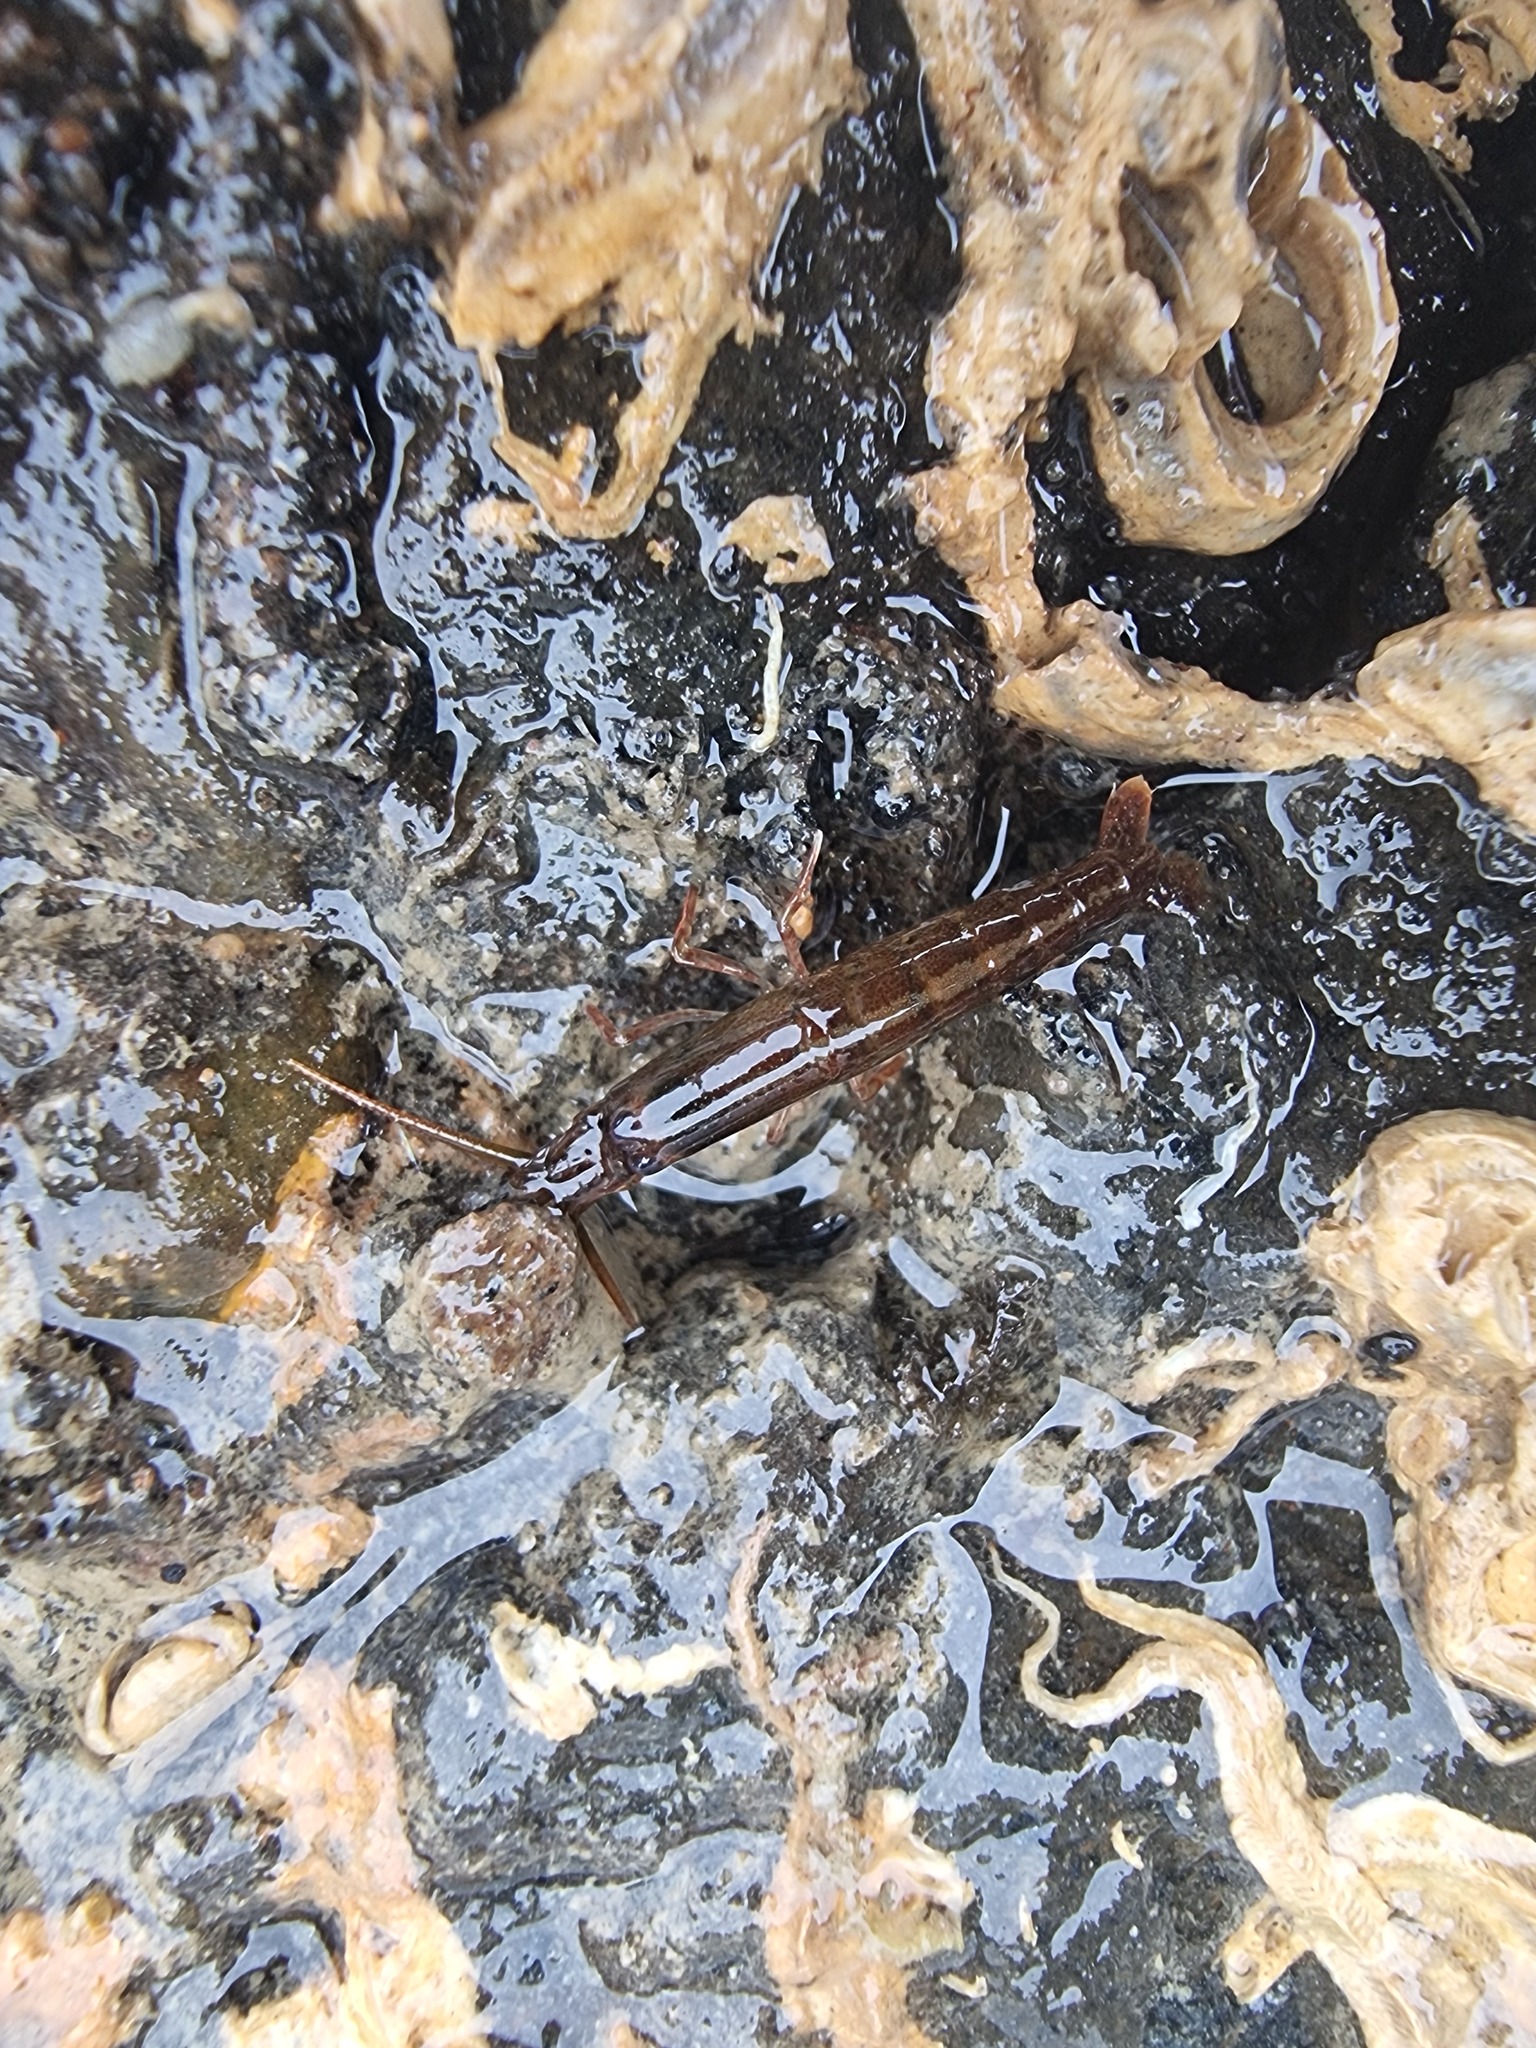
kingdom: Animalia
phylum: Arthropoda
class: Malacostraca
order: Decapoda
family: Alpheidae
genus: Betaeopsis
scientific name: Betaeopsis aequimanus
